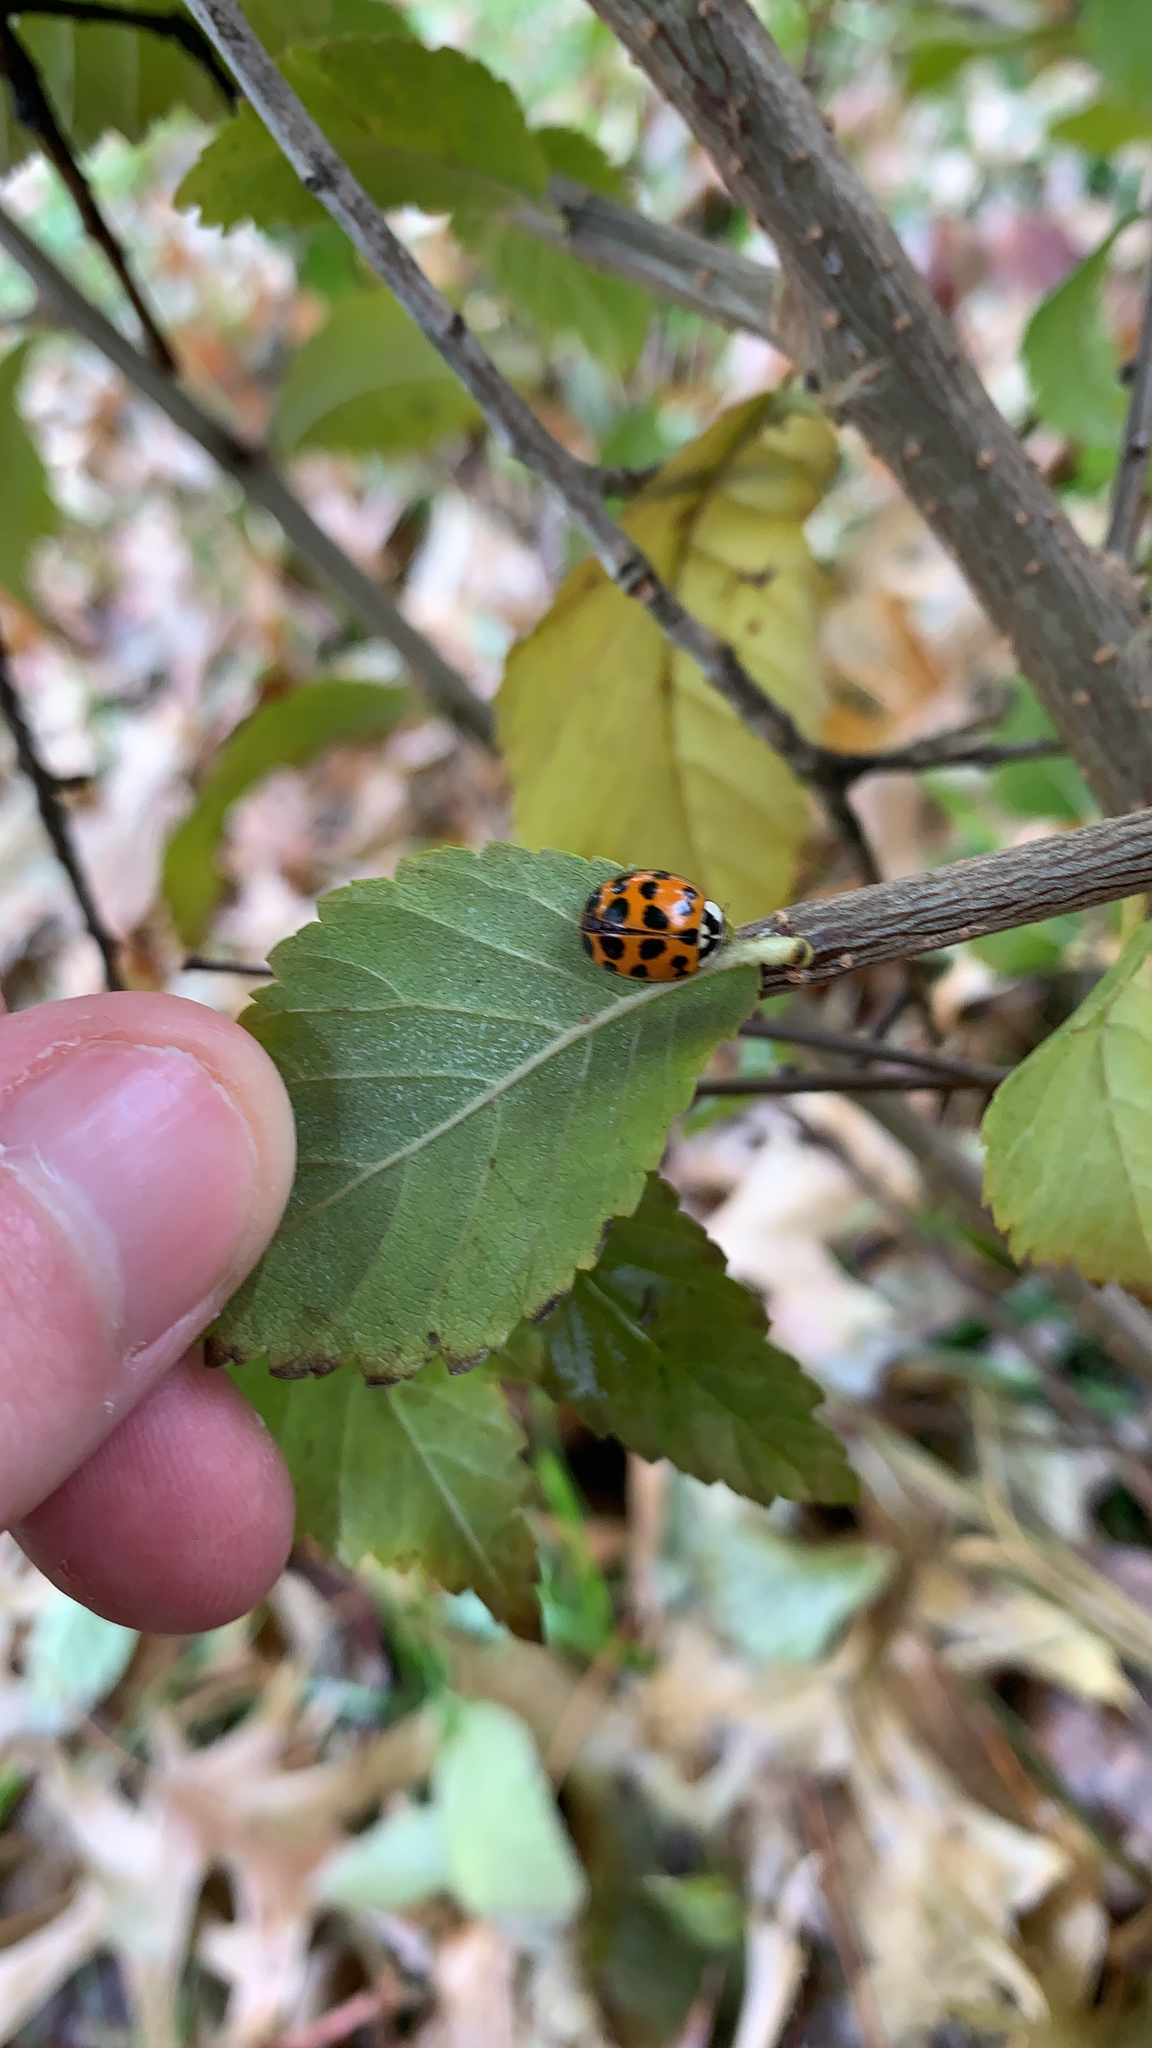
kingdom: Animalia
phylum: Arthropoda
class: Insecta
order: Coleoptera
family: Coccinellidae
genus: Harmonia
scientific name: Harmonia axyridis
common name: Harlequin ladybird
